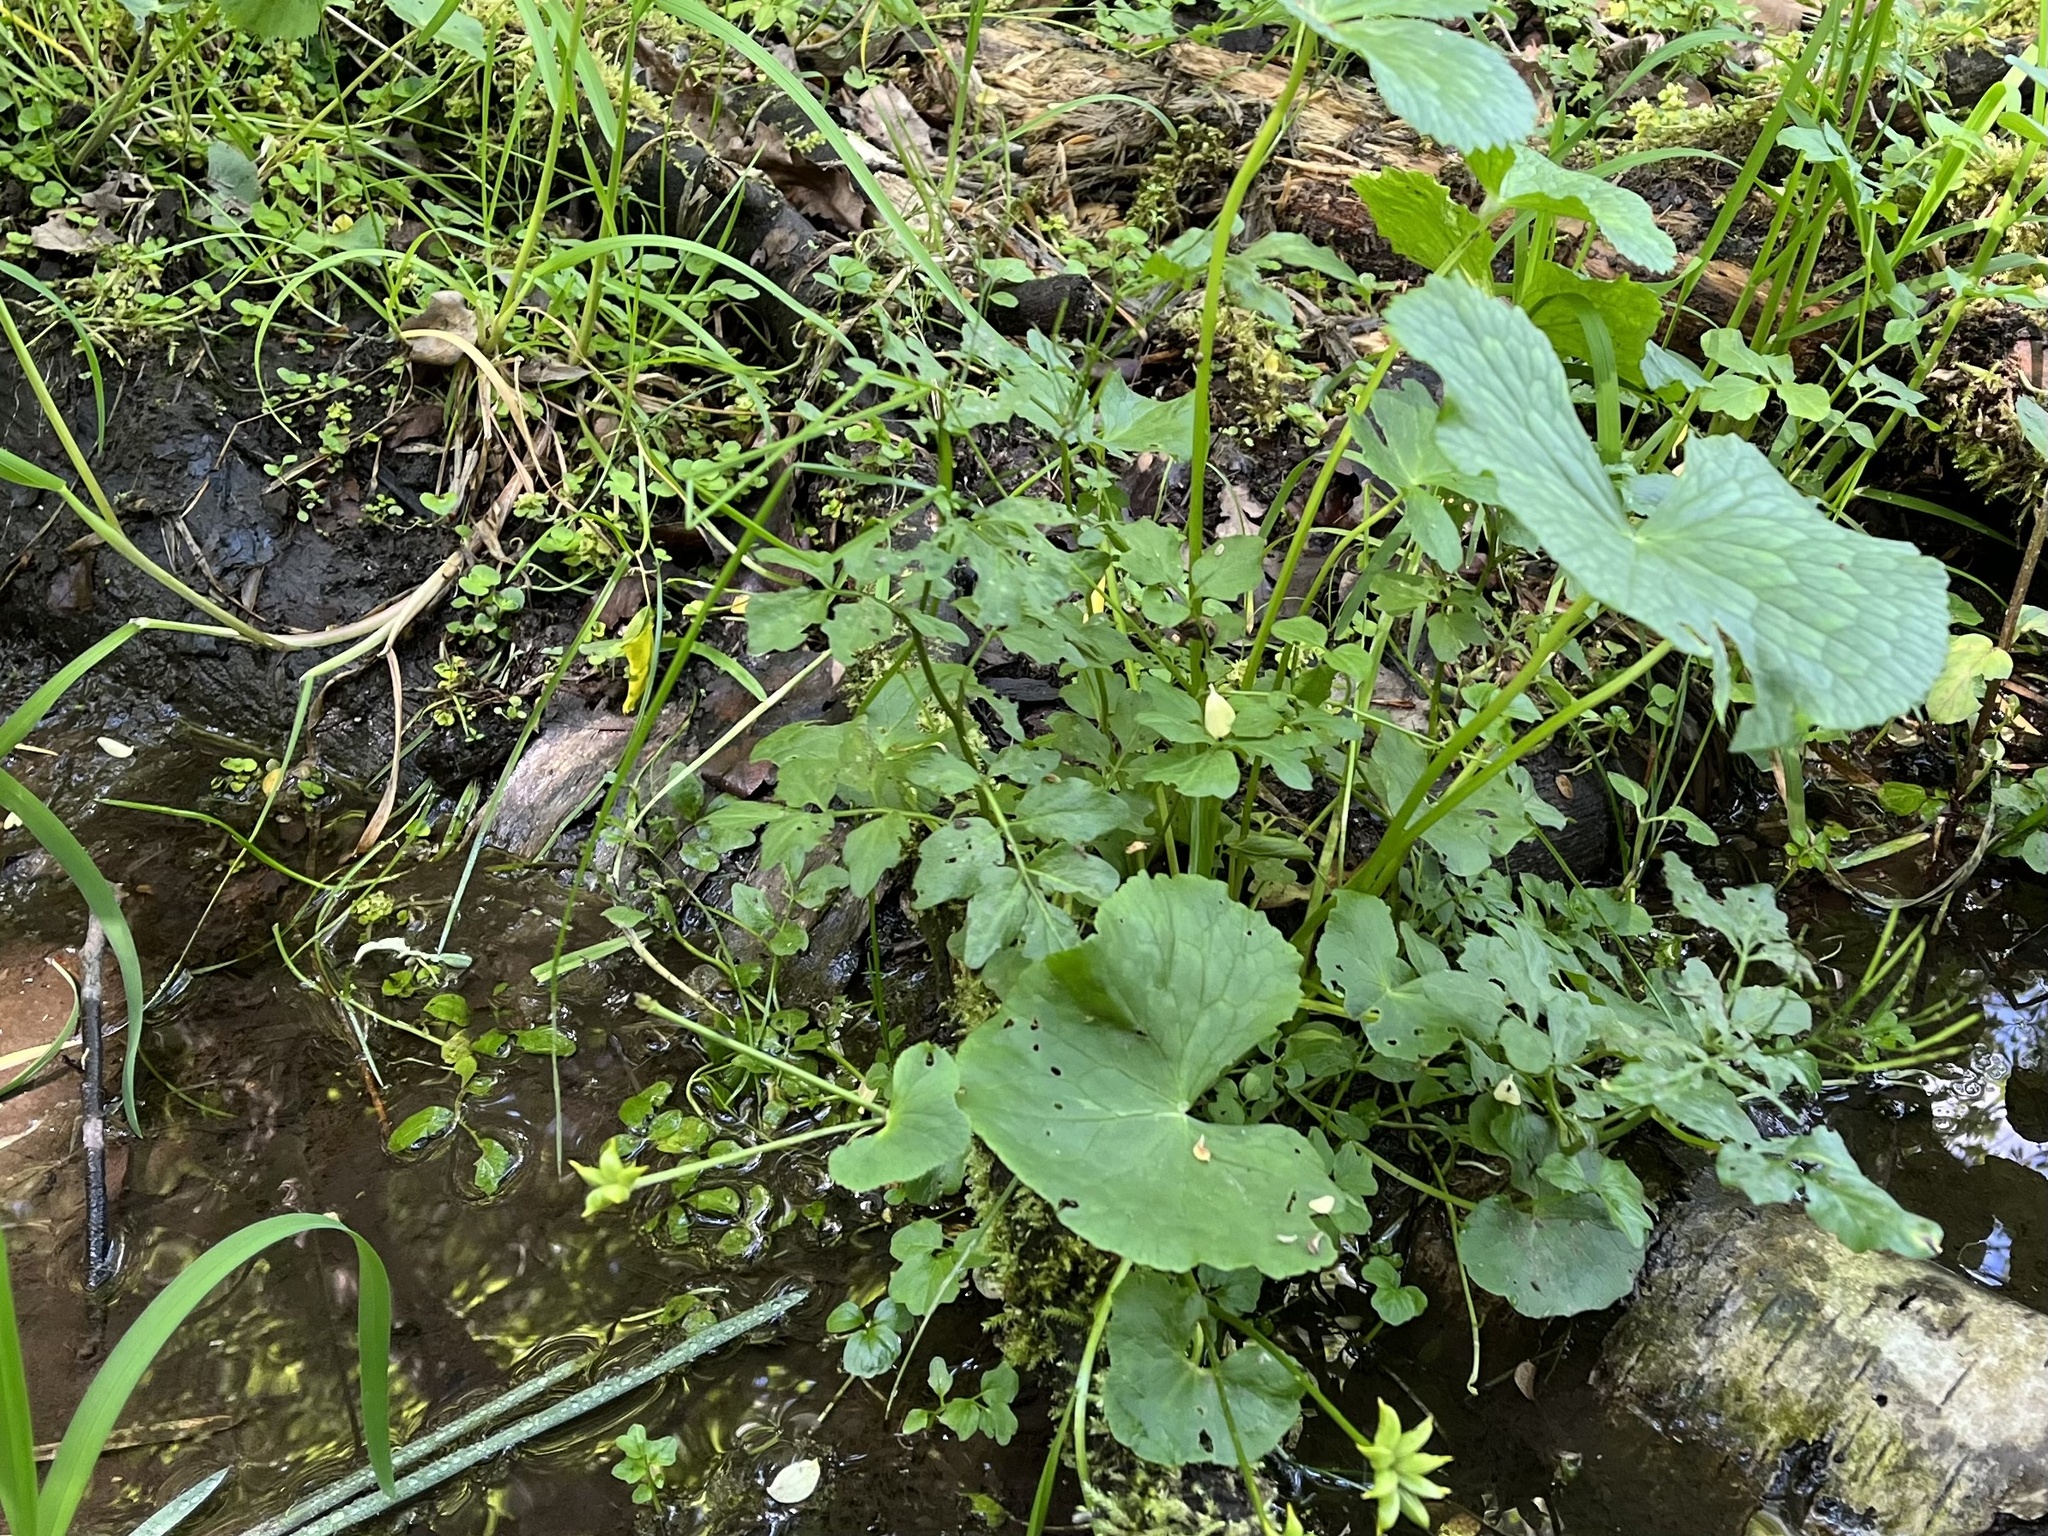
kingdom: Plantae
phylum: Tracheophyta
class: Magnoliopsida
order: Brassicales
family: Brassicaceae
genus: Cardamine
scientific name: Cardamine amara
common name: Large bitter-cress
